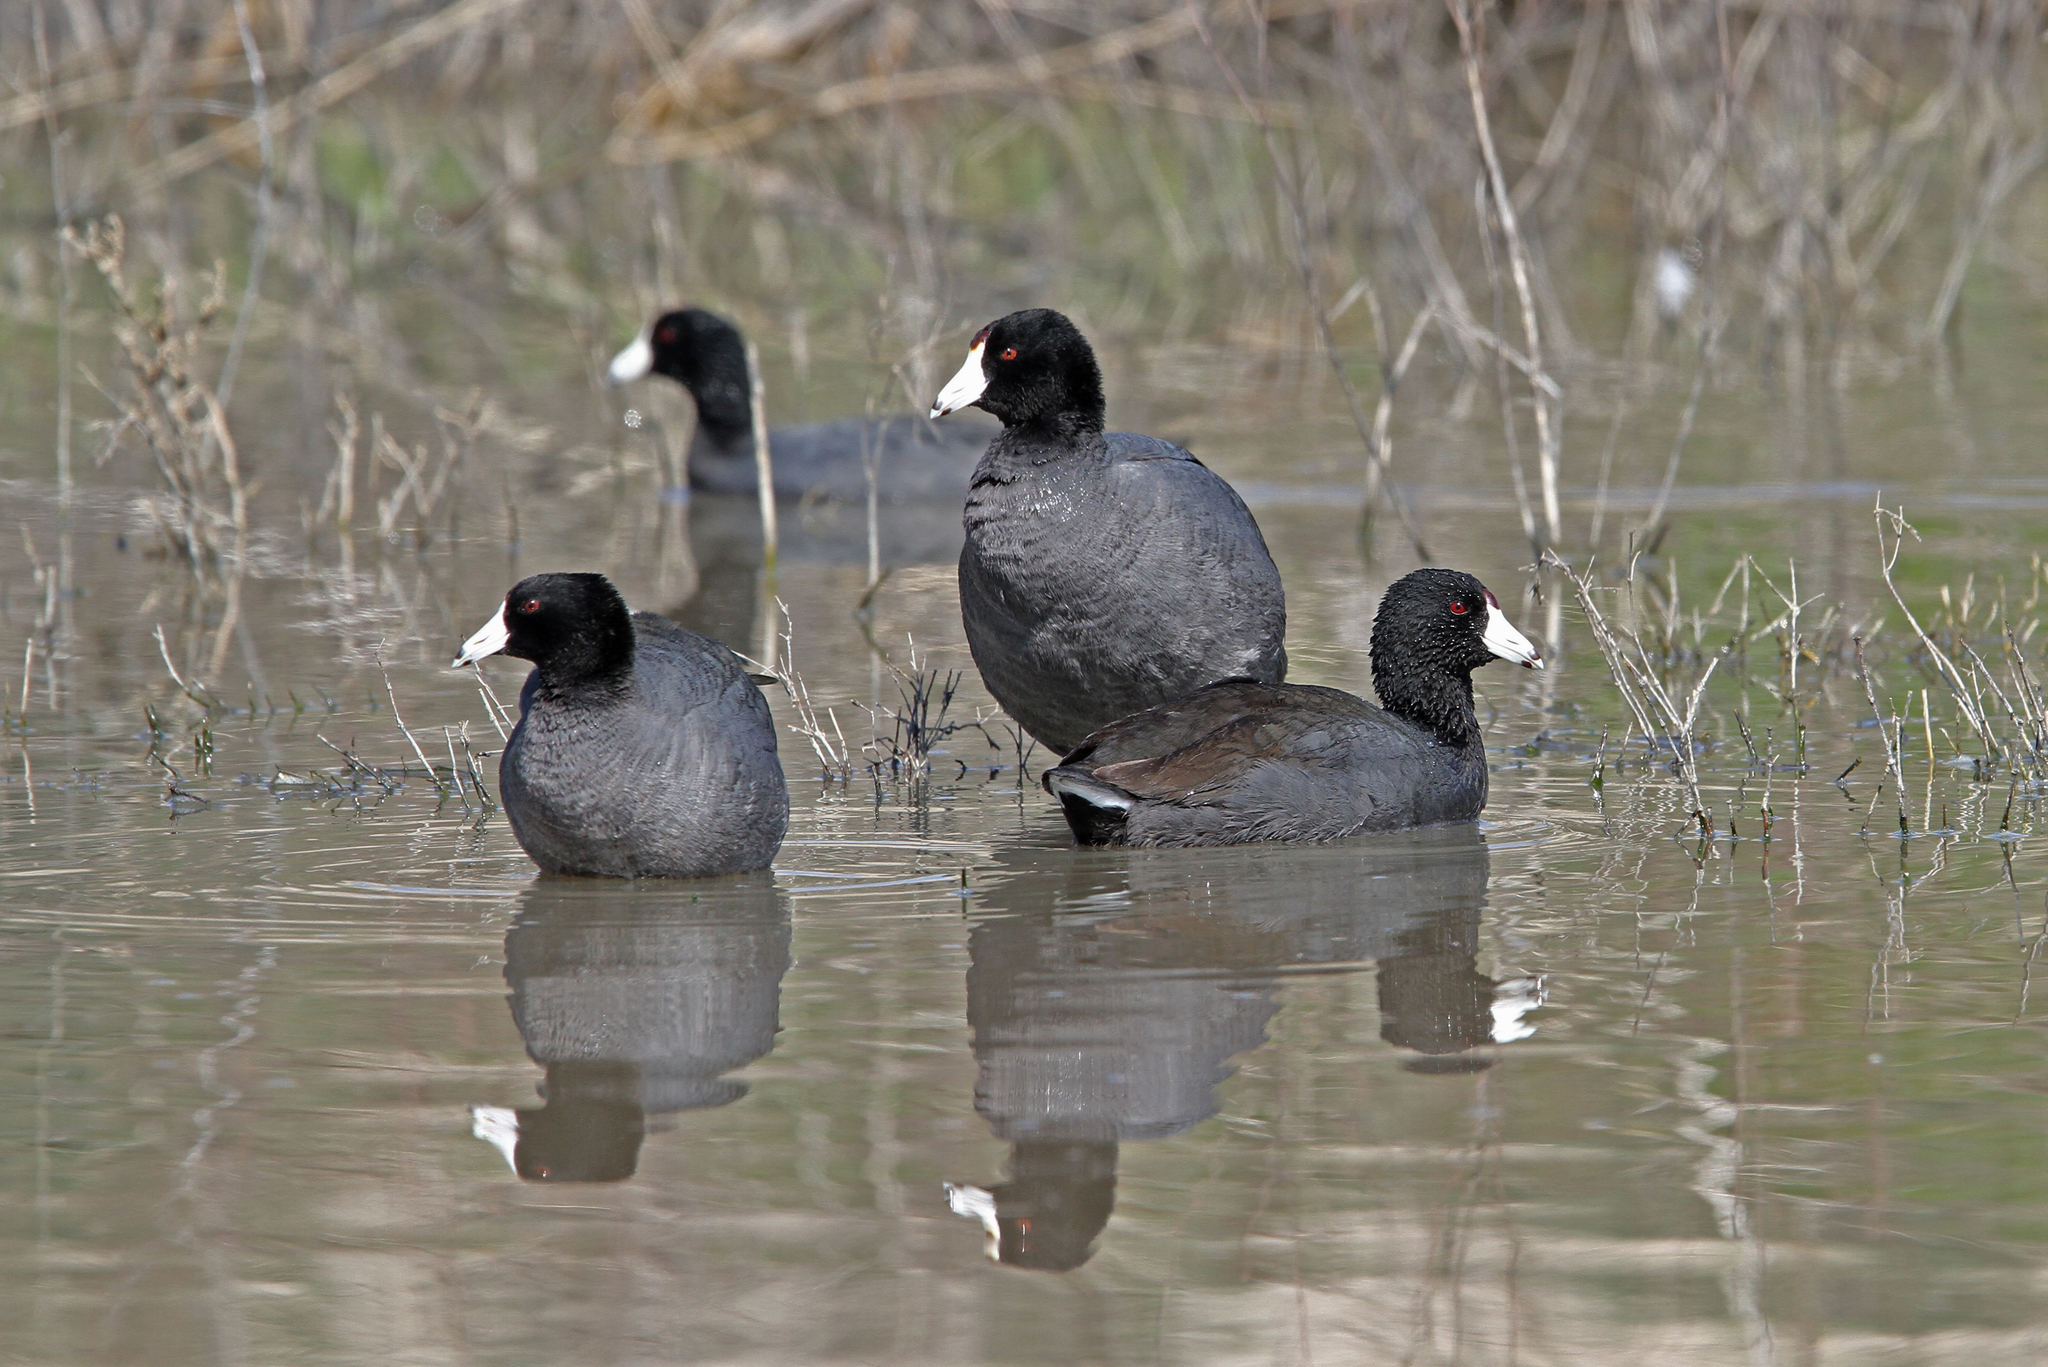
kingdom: Animalia
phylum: Chordata
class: Aves
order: Gruiformes
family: Rallidae
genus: Fulica
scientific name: Fulica americana
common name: American coot
